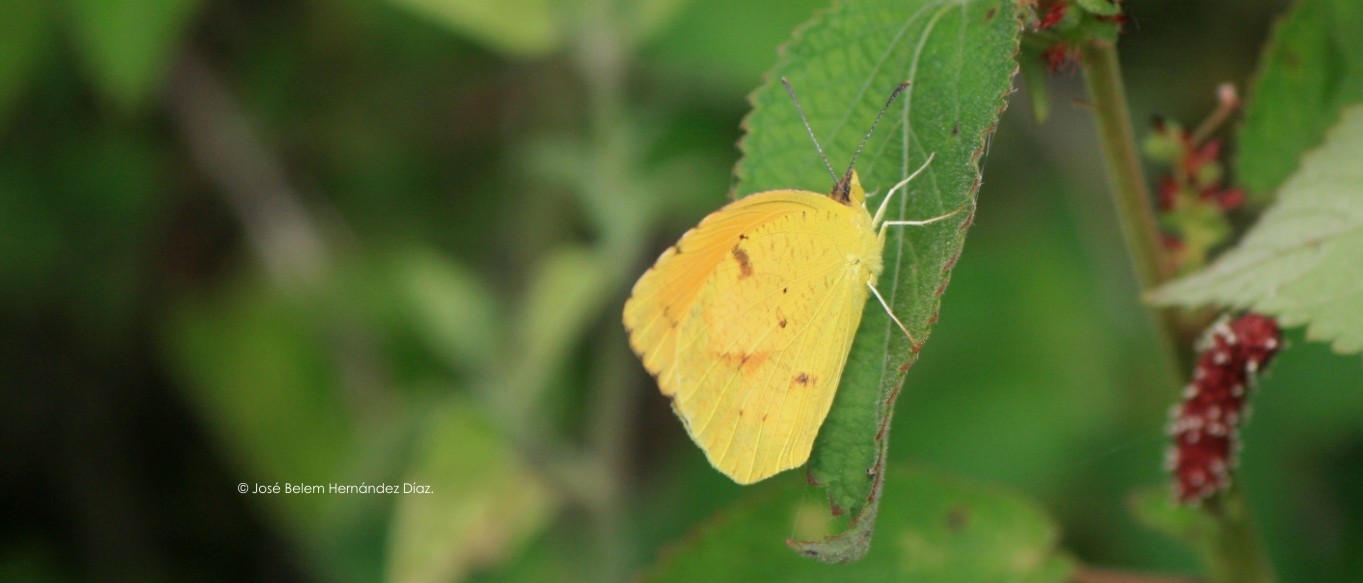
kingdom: Animalia
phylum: Arthropoda
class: Insecta
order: Lepidoptera
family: Pieridae
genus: Abaeis
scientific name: Abaeis nicippe
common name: Sleepy orange
